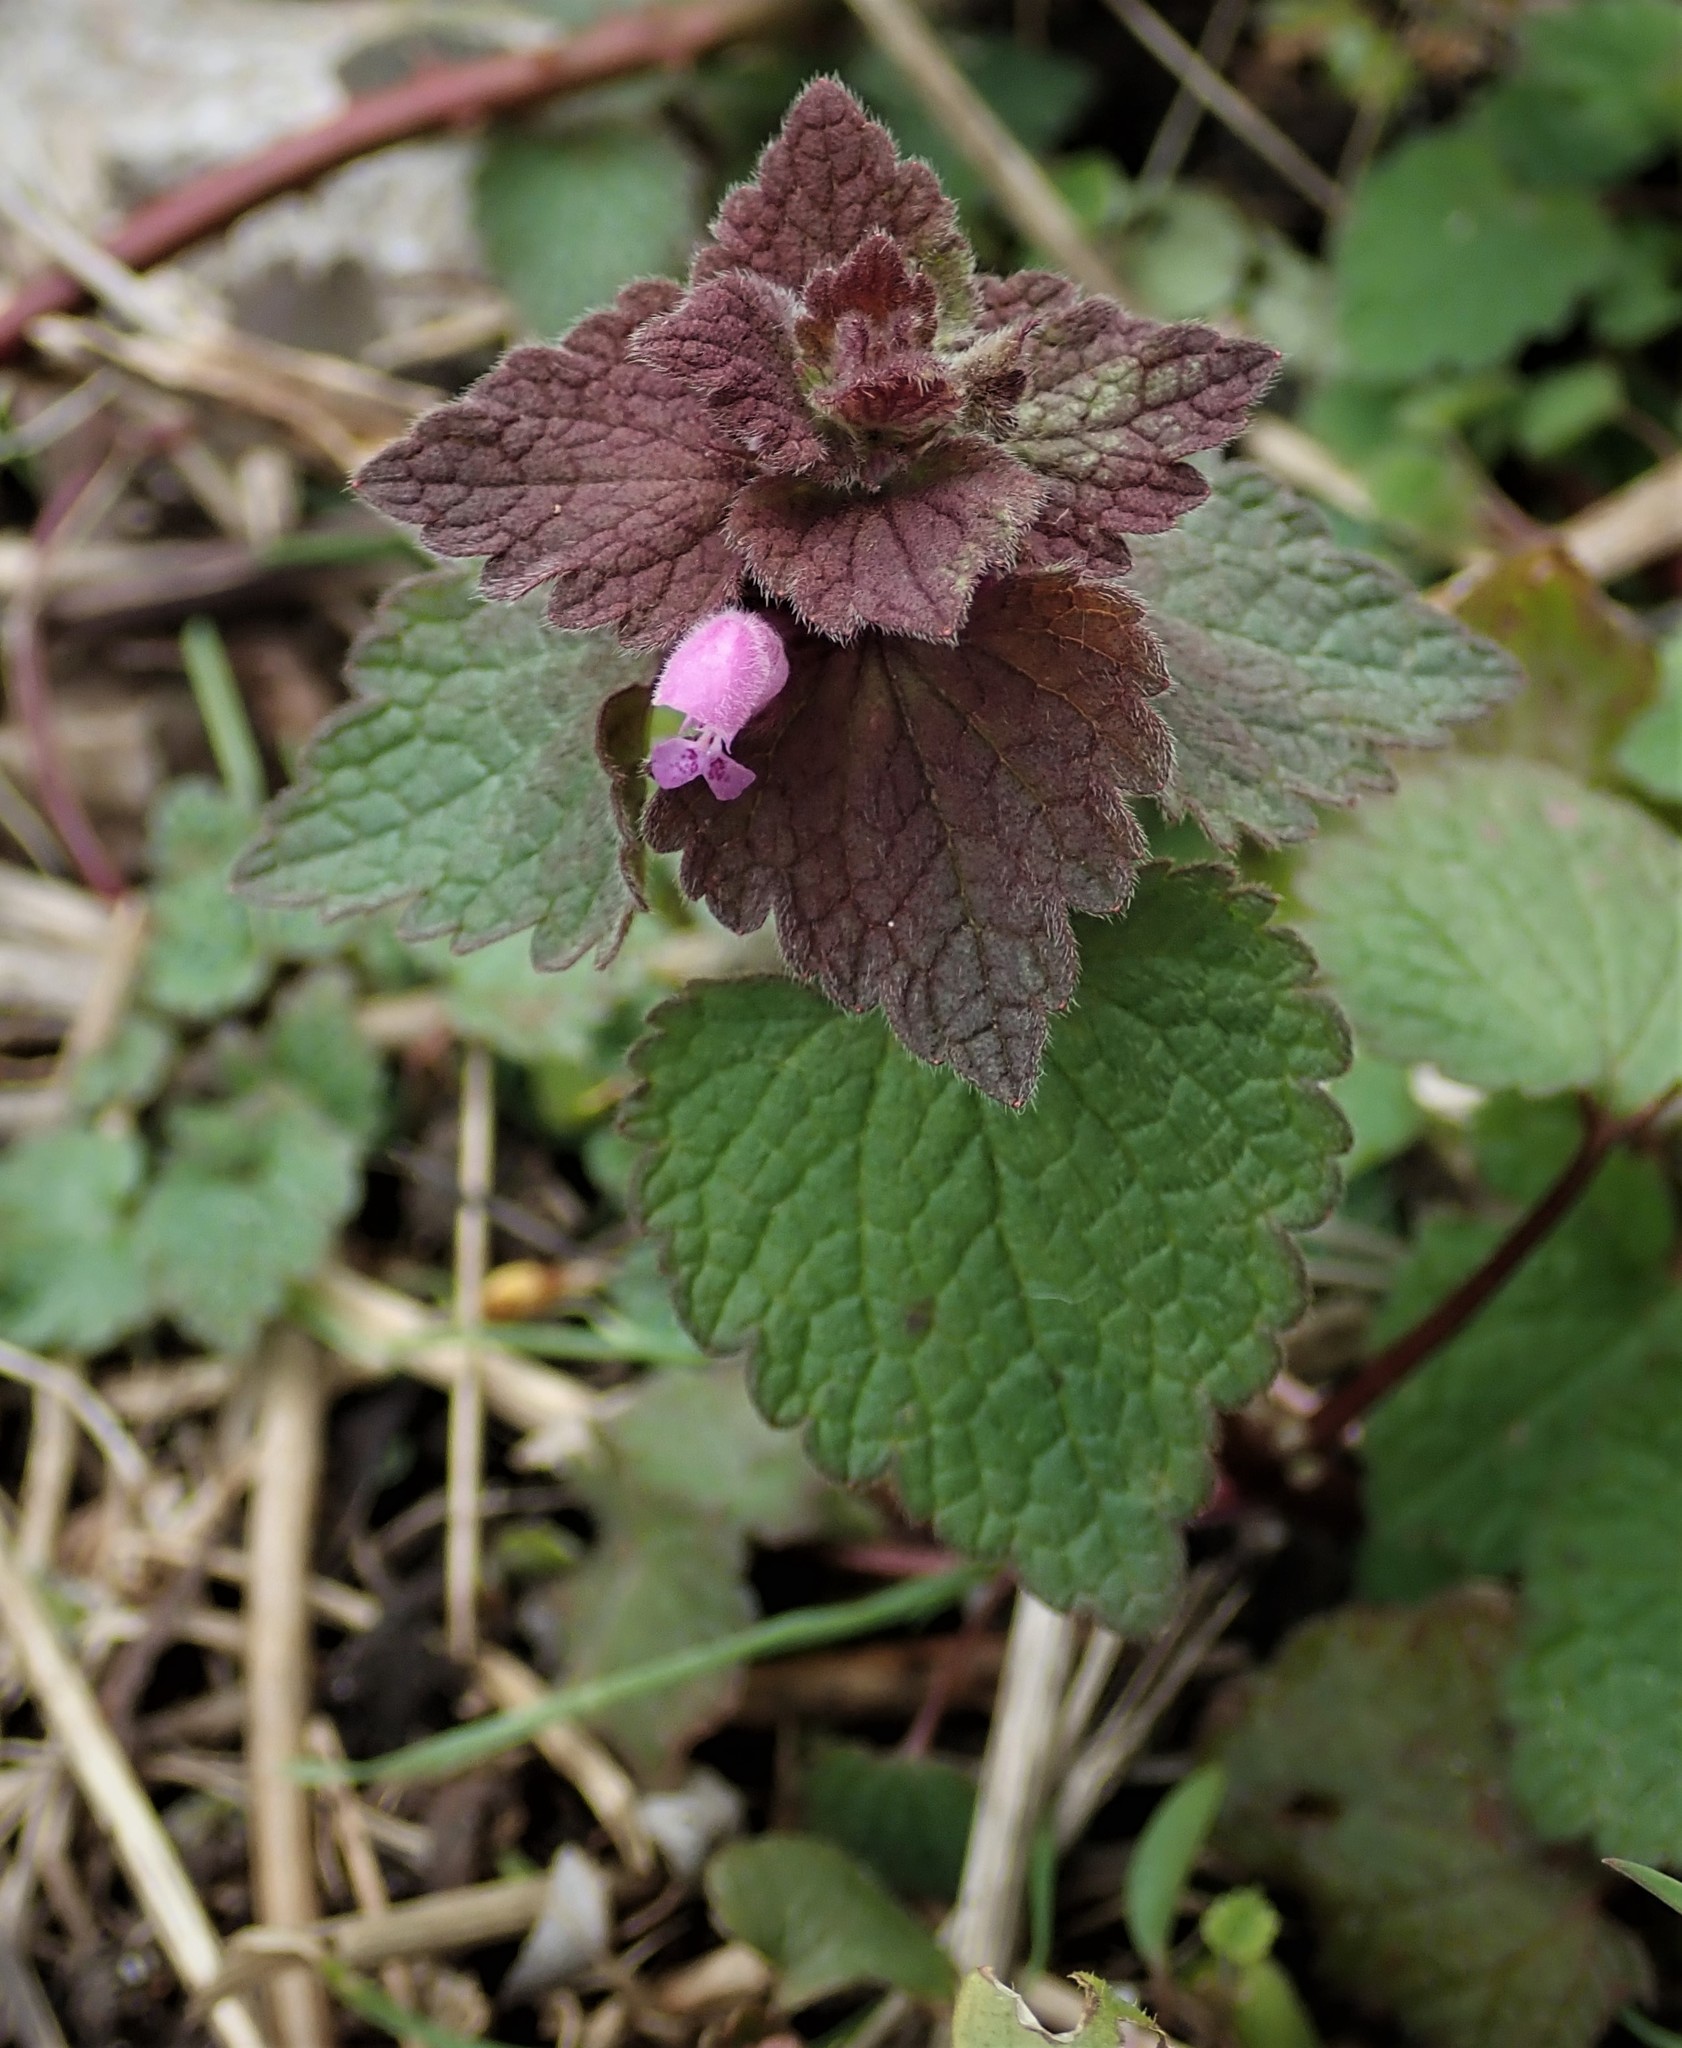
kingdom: Plantae
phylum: Tracheophyta
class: Magnoliopsida
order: Lamiales
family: Lamiaceae
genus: Lamium
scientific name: Lamium purpureum
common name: Red dead-nettle
